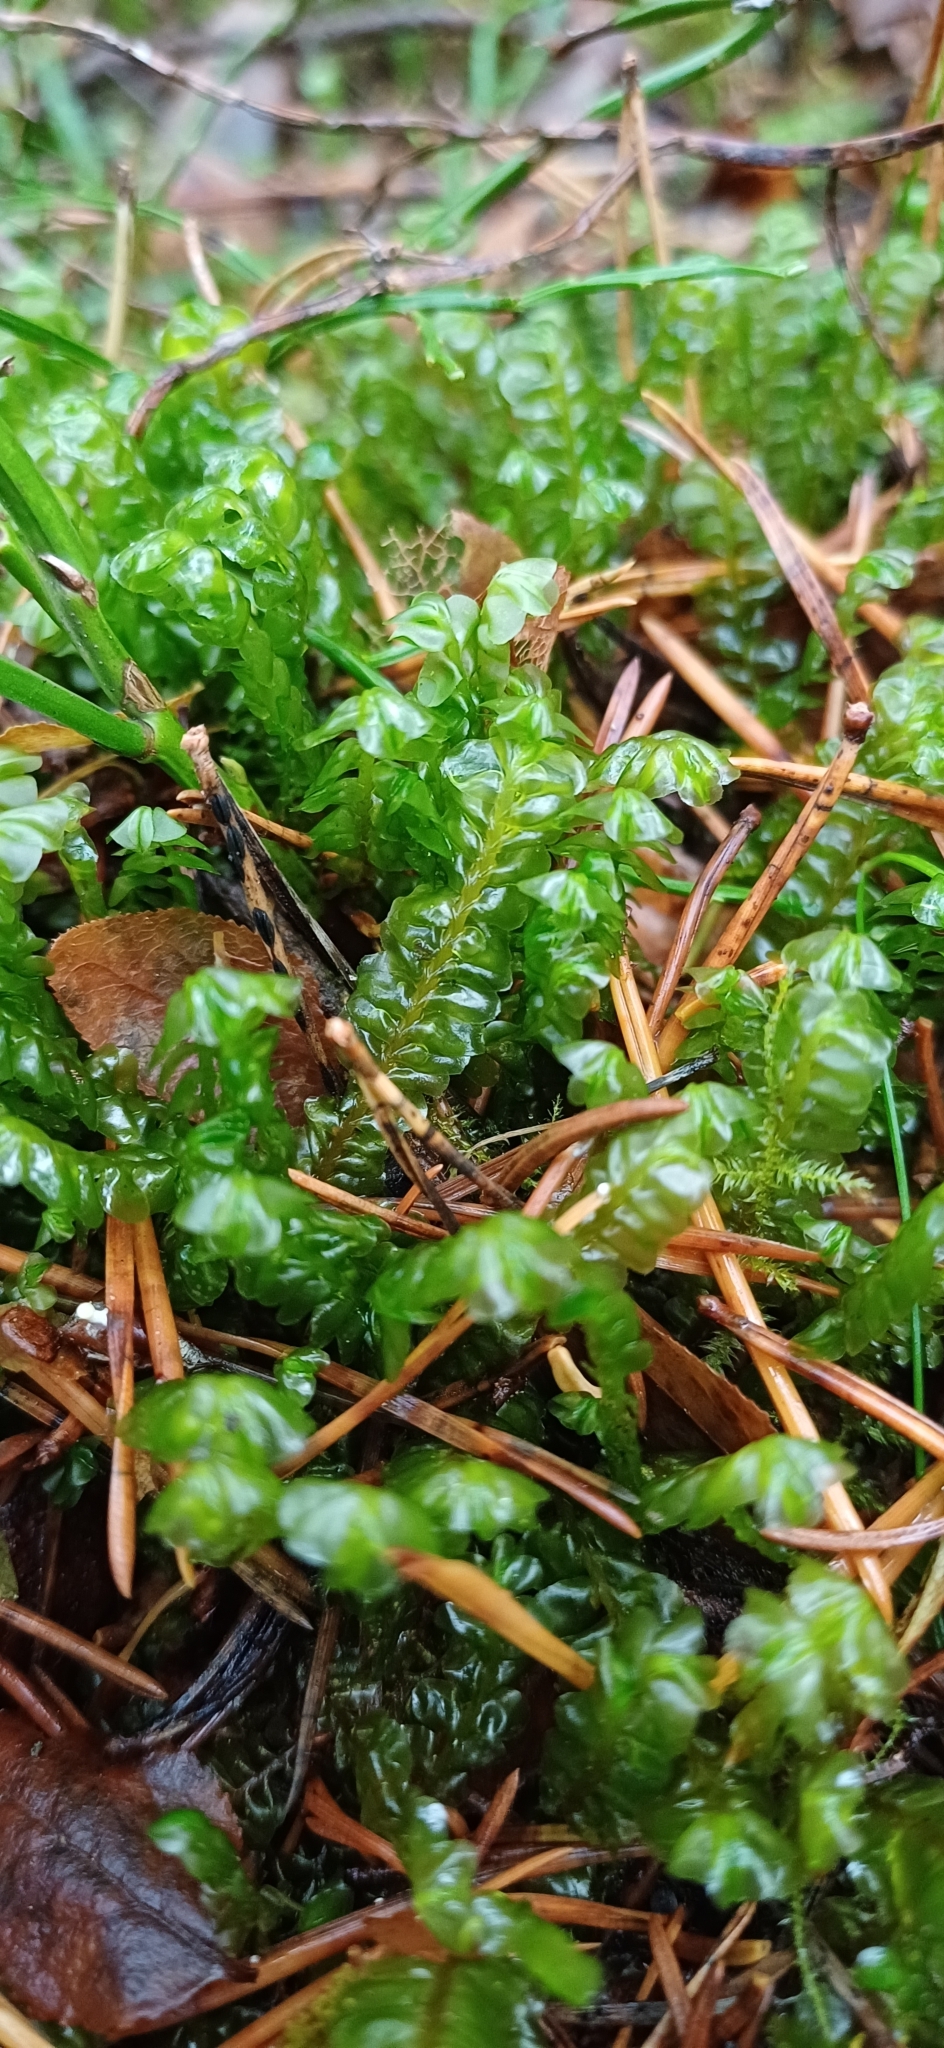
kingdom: Plantae
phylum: Marchantiophyta
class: Jungermanniopsida
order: Jungermanniales
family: Plagiochilaceae
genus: Plagiochila
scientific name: Plagiochila asplenioides
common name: Greater featherwort
